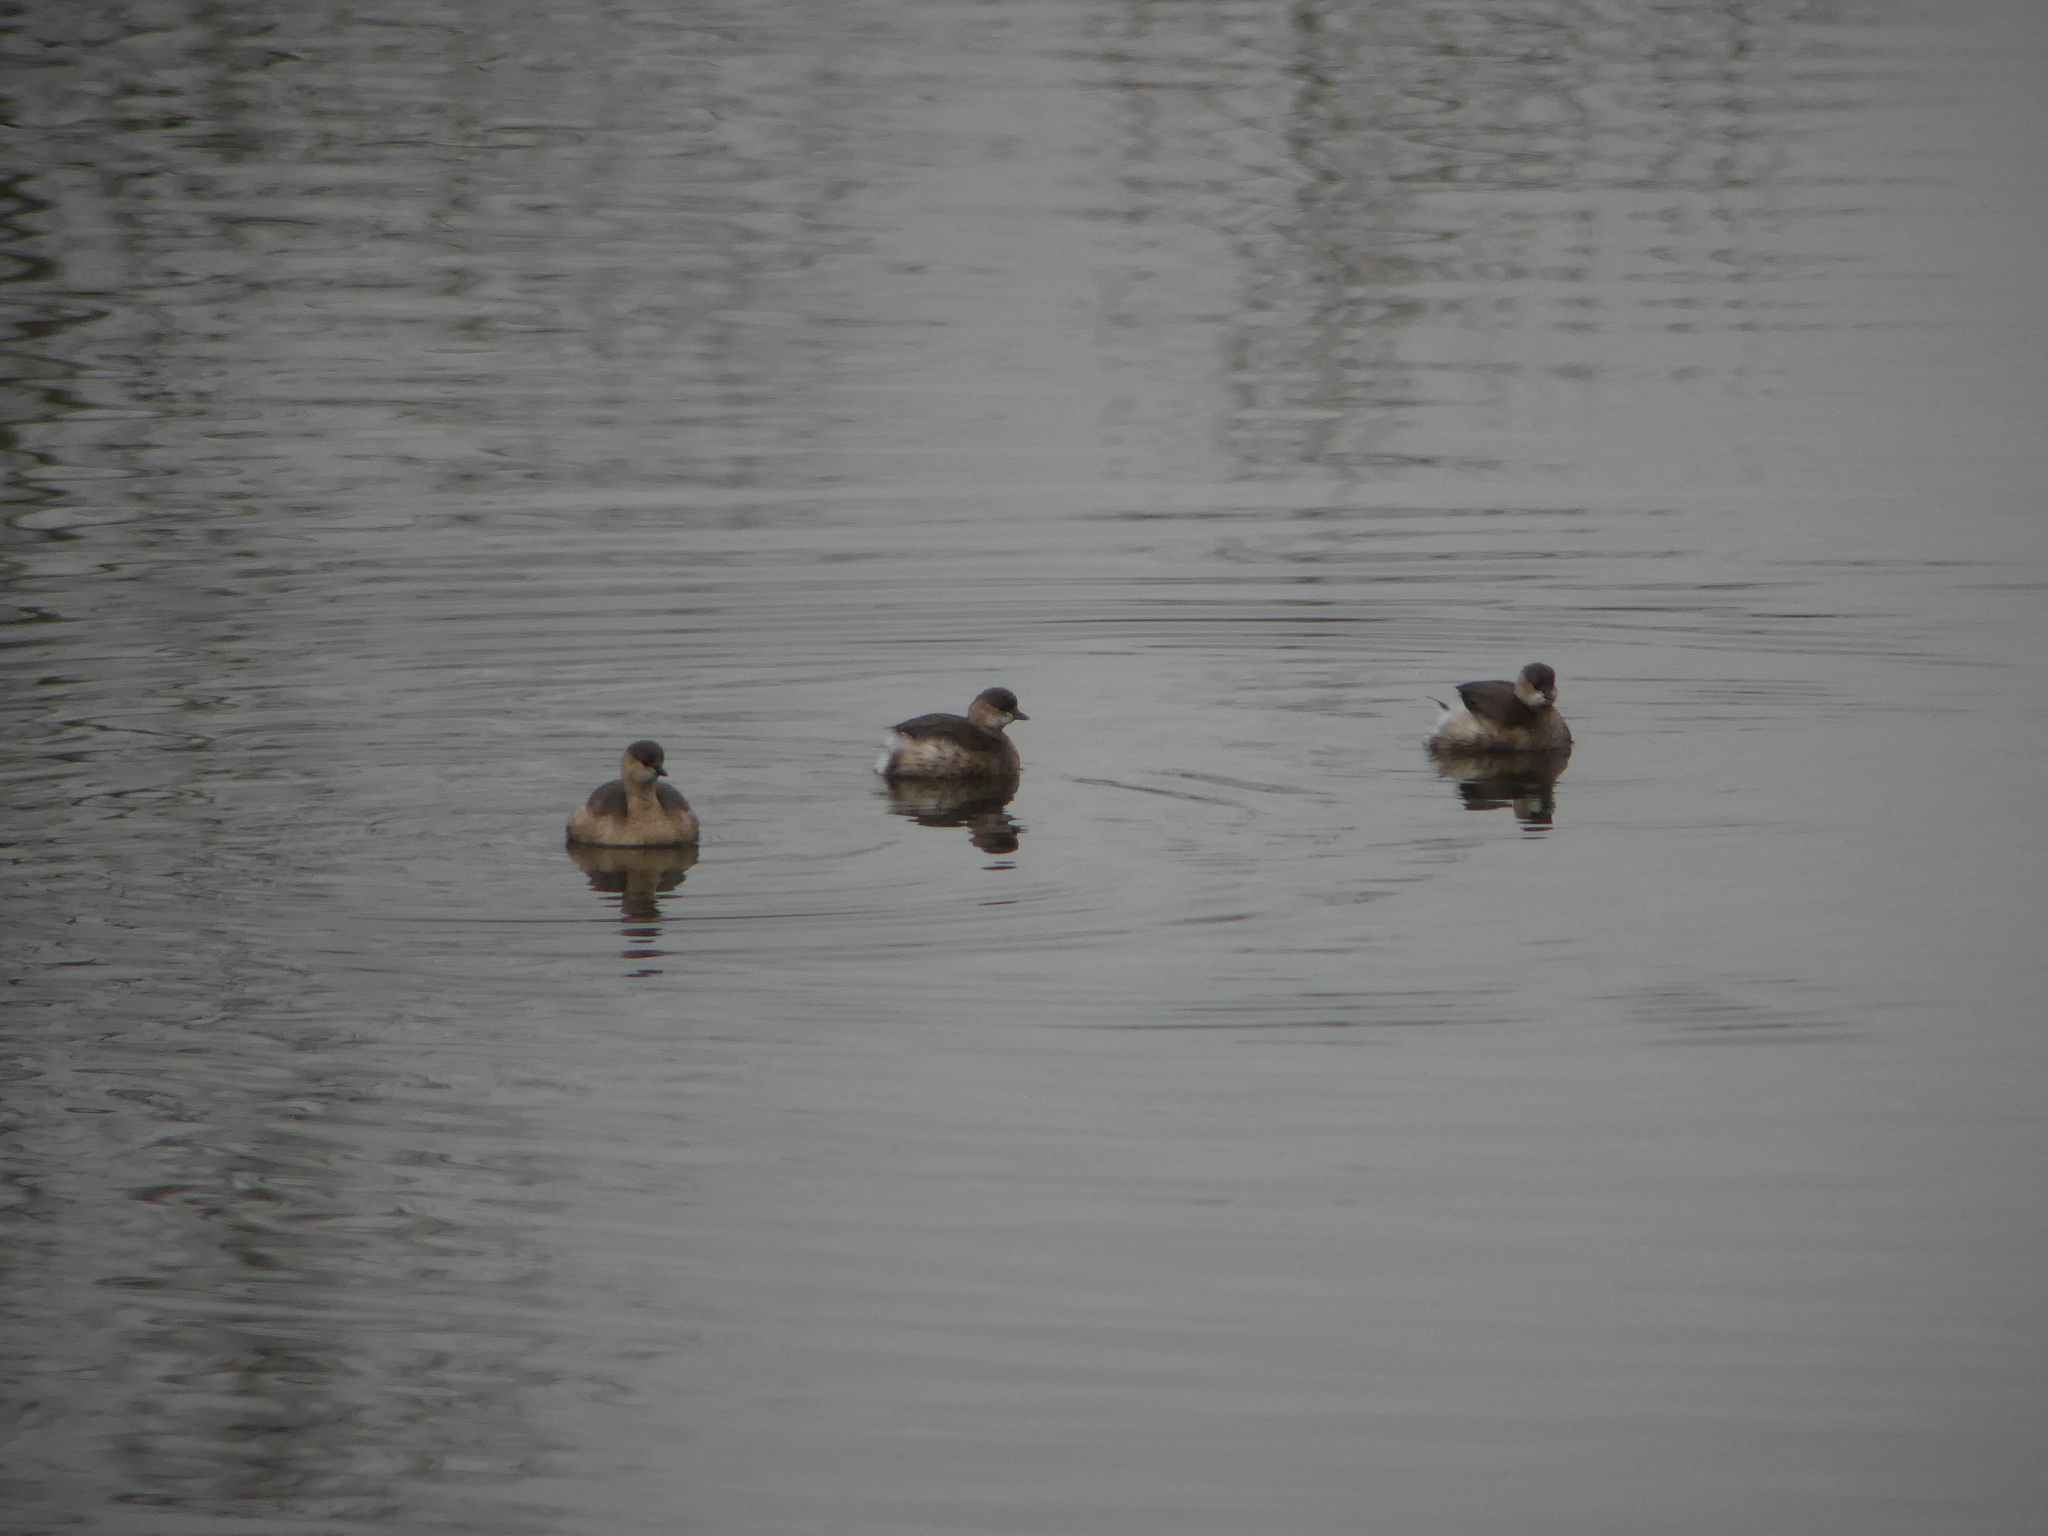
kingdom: Animalia
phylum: Chordata
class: Aves
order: Podicipediformes
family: Podicipedidae
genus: Tachybaptus
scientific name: Tachybaptus ruficollis
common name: Little grebe
